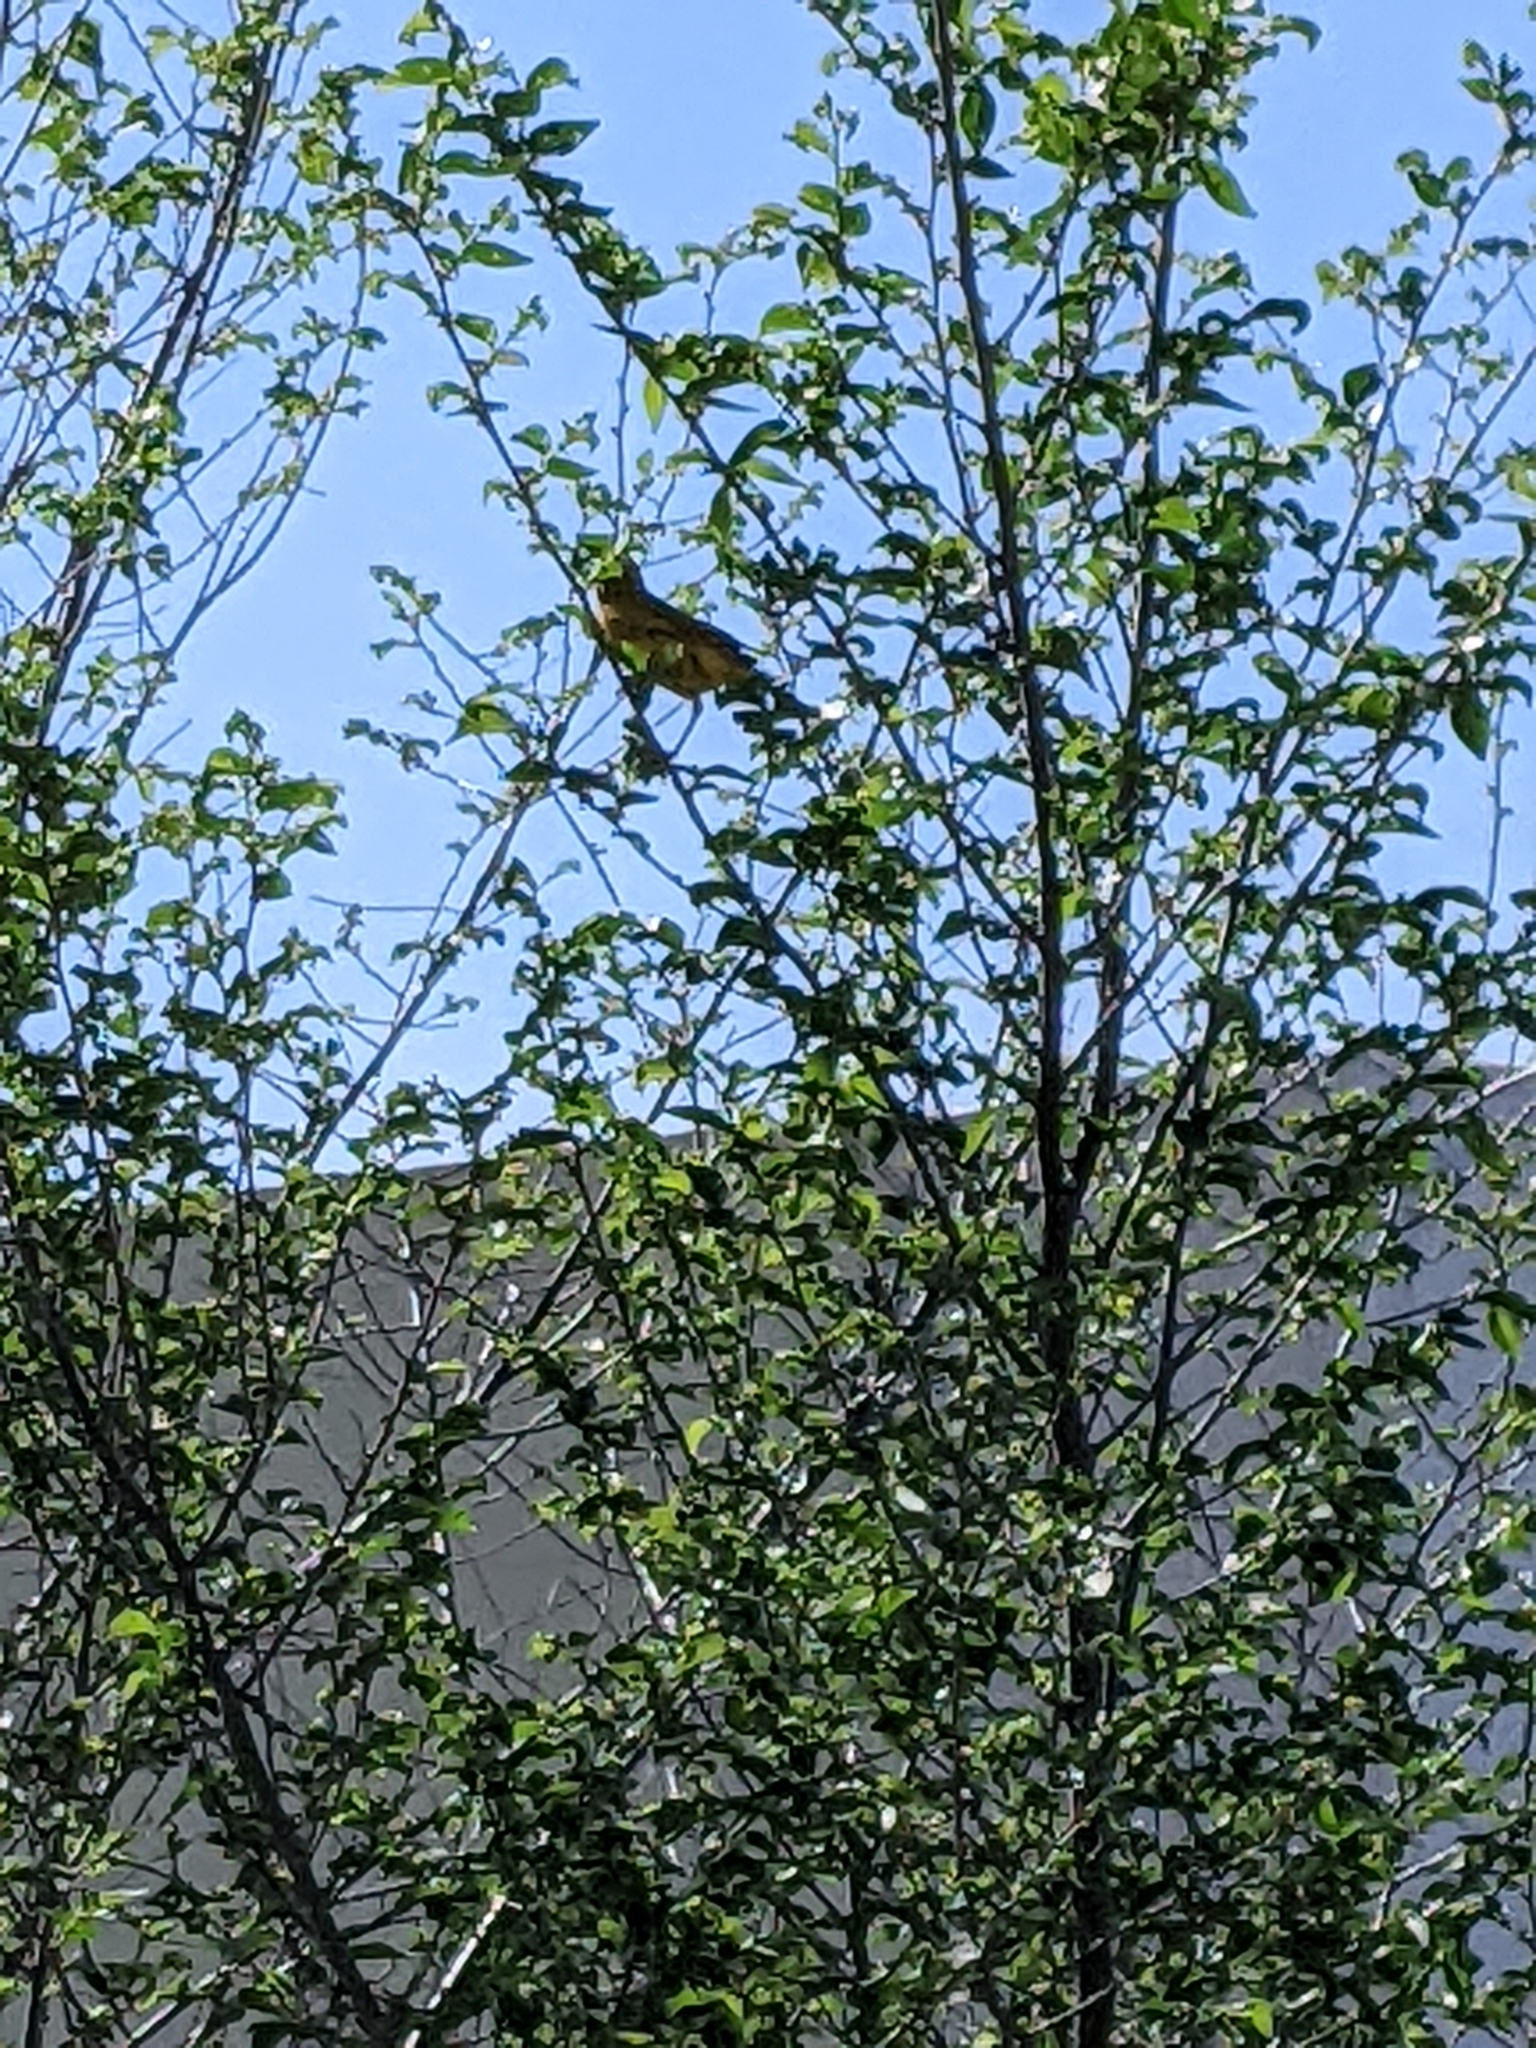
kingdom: Animalia
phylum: Chordata
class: Aves
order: Passeriformes
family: Parulidae
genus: Setophaga
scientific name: Setophaga petechia
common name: Yellow warbler
